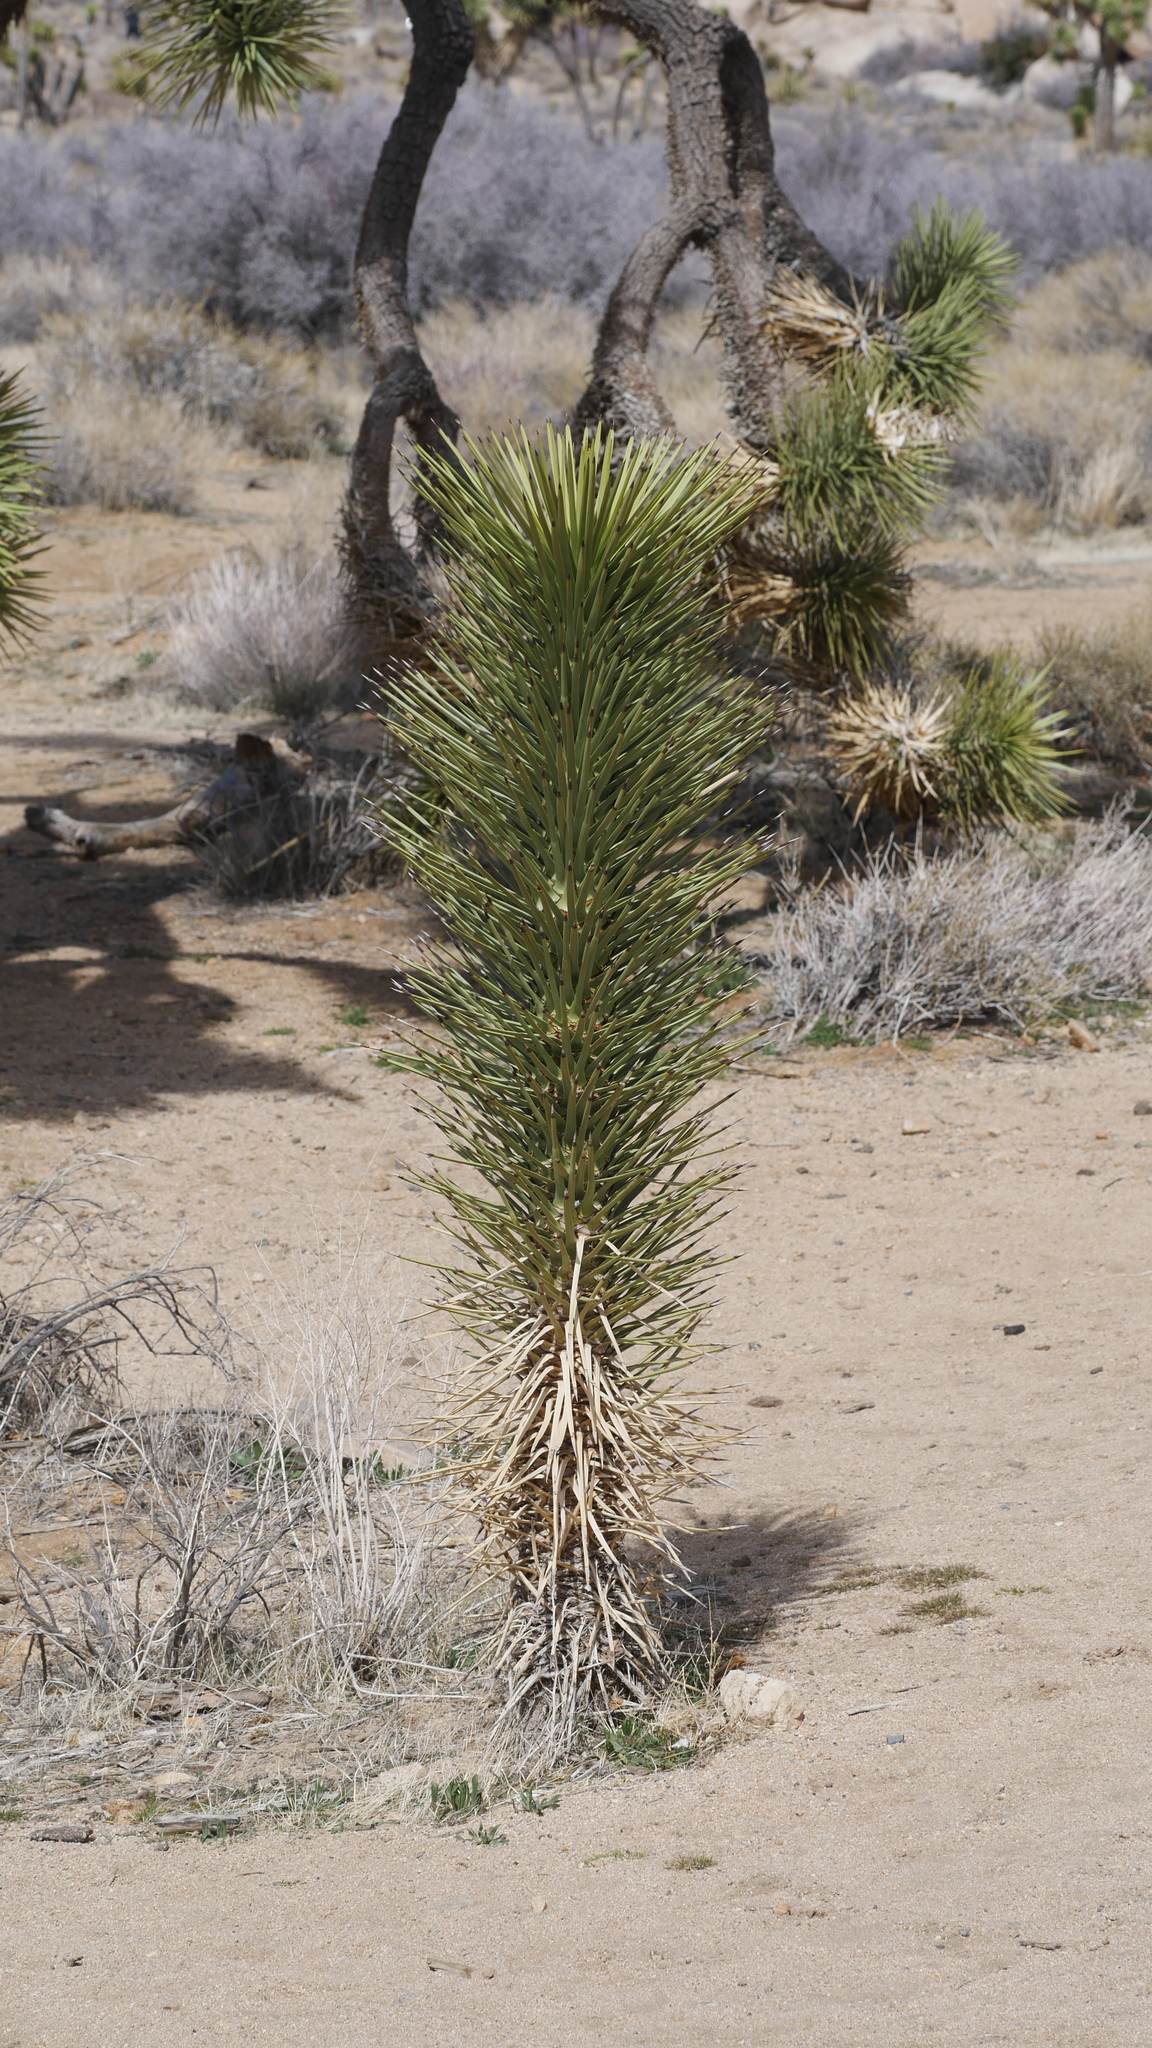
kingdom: Plantae
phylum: Tracheophyta
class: Liliopsida
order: Asparagales
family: Asparagaceae
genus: Yucca
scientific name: Yucca brevifolia
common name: Joshua tree
